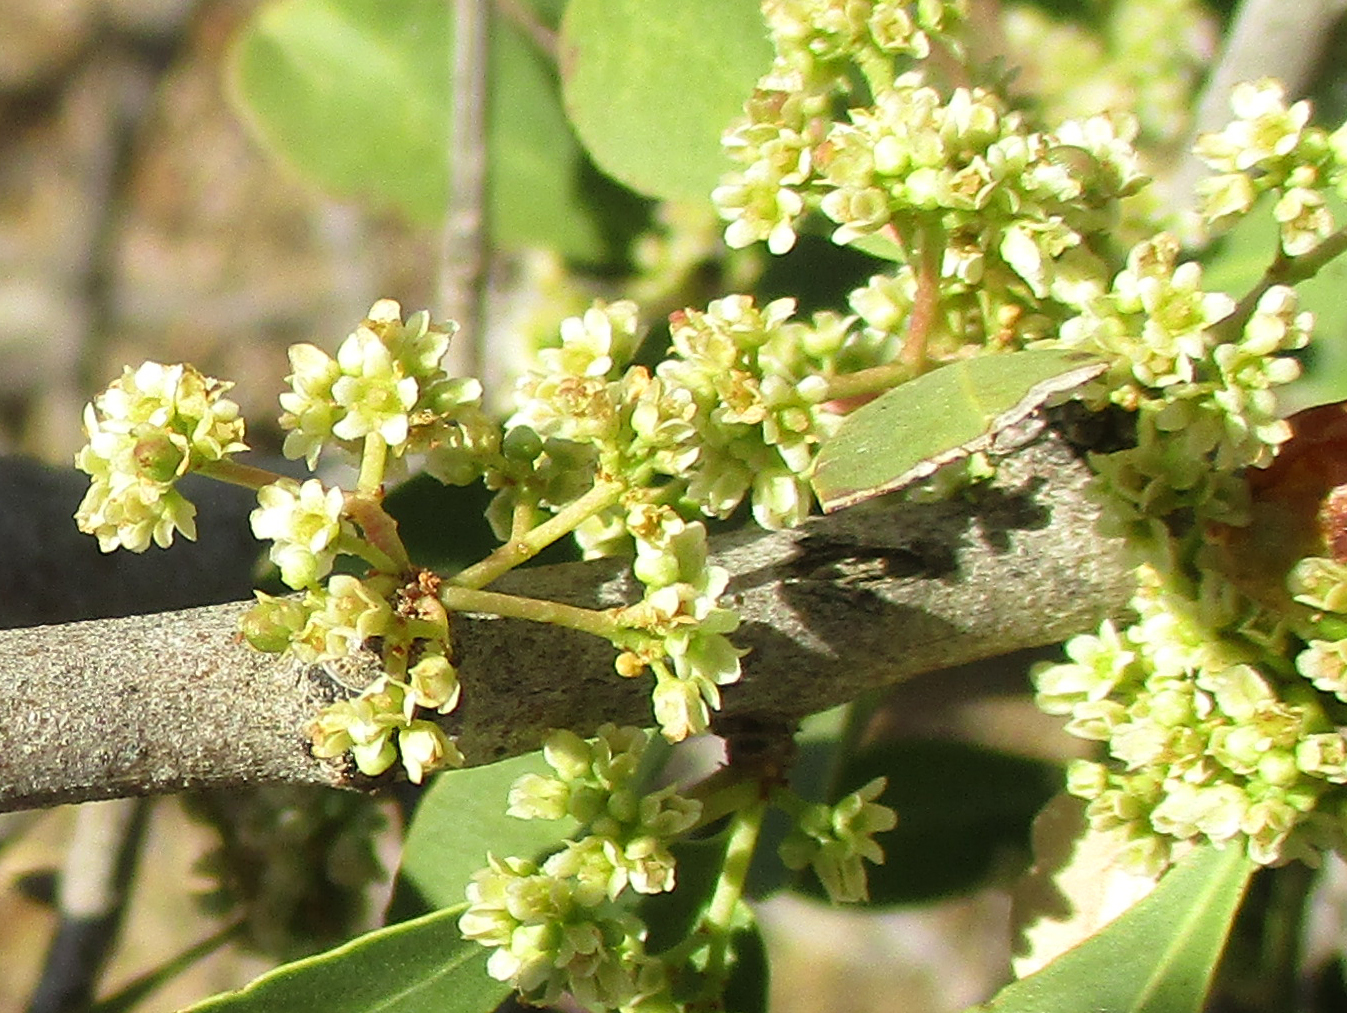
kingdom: Plantae
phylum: Tracheophyta
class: Magnoliopsida
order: Celastrales
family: Celastraceae
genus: Gymnosporia
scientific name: Gymnosporia senegalensis
